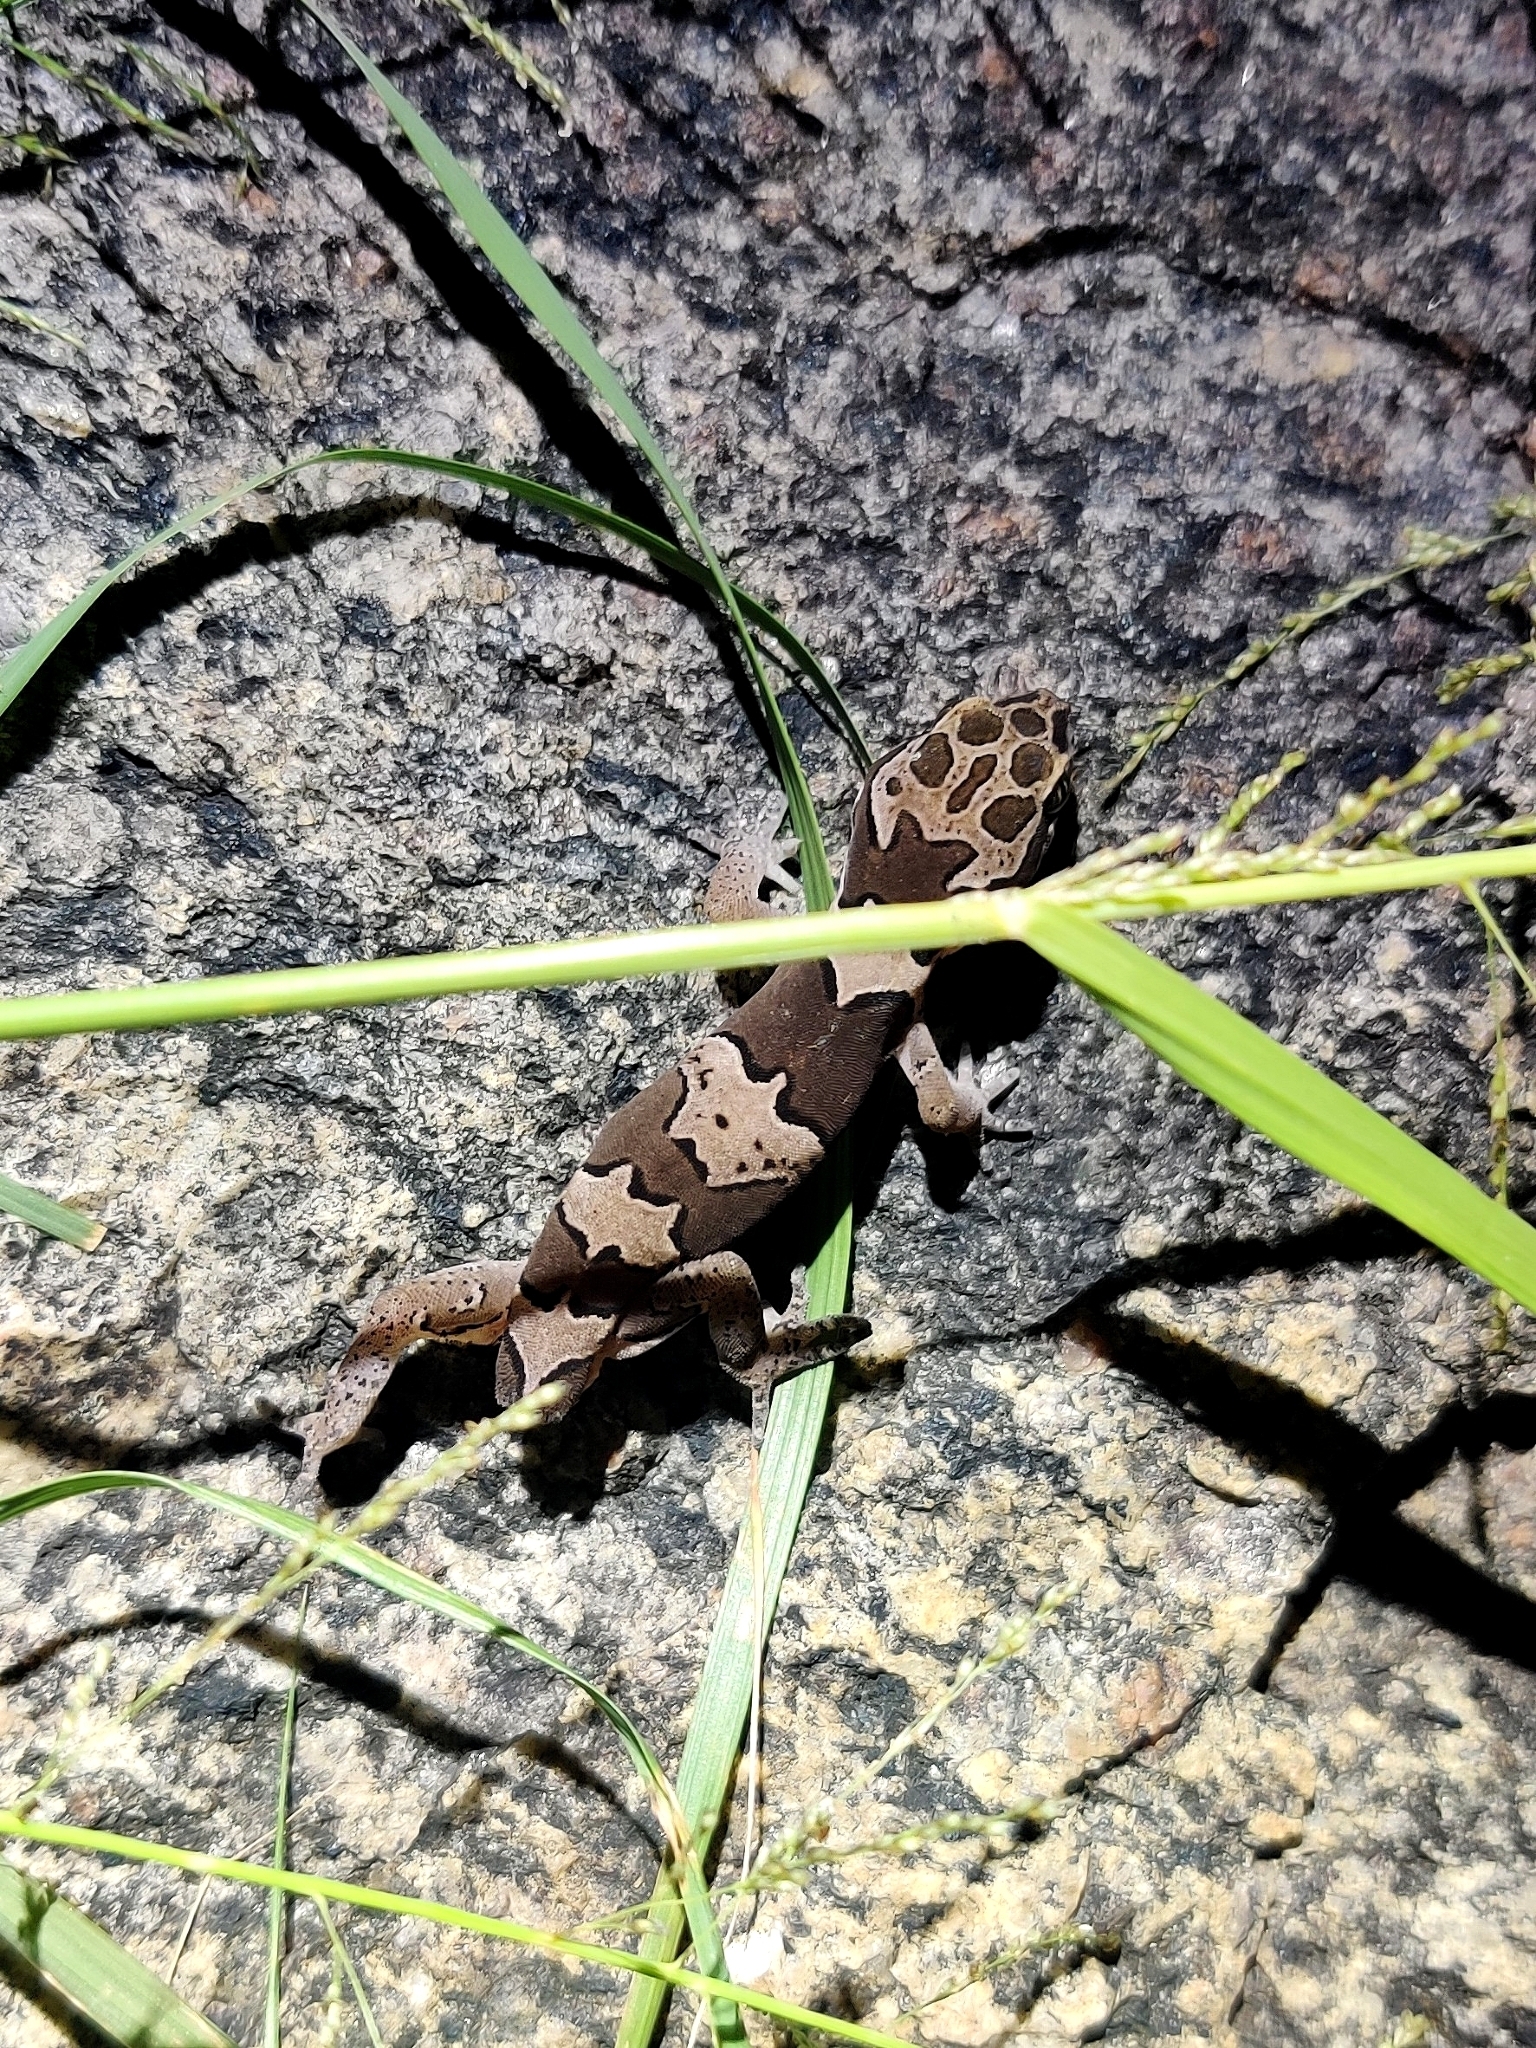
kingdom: Animalia
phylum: Chordata
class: Squamata
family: Gekkonidae
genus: Cyrtodactylus
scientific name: Cyrtodactylus collegalensis
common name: Forest spotted gecko
